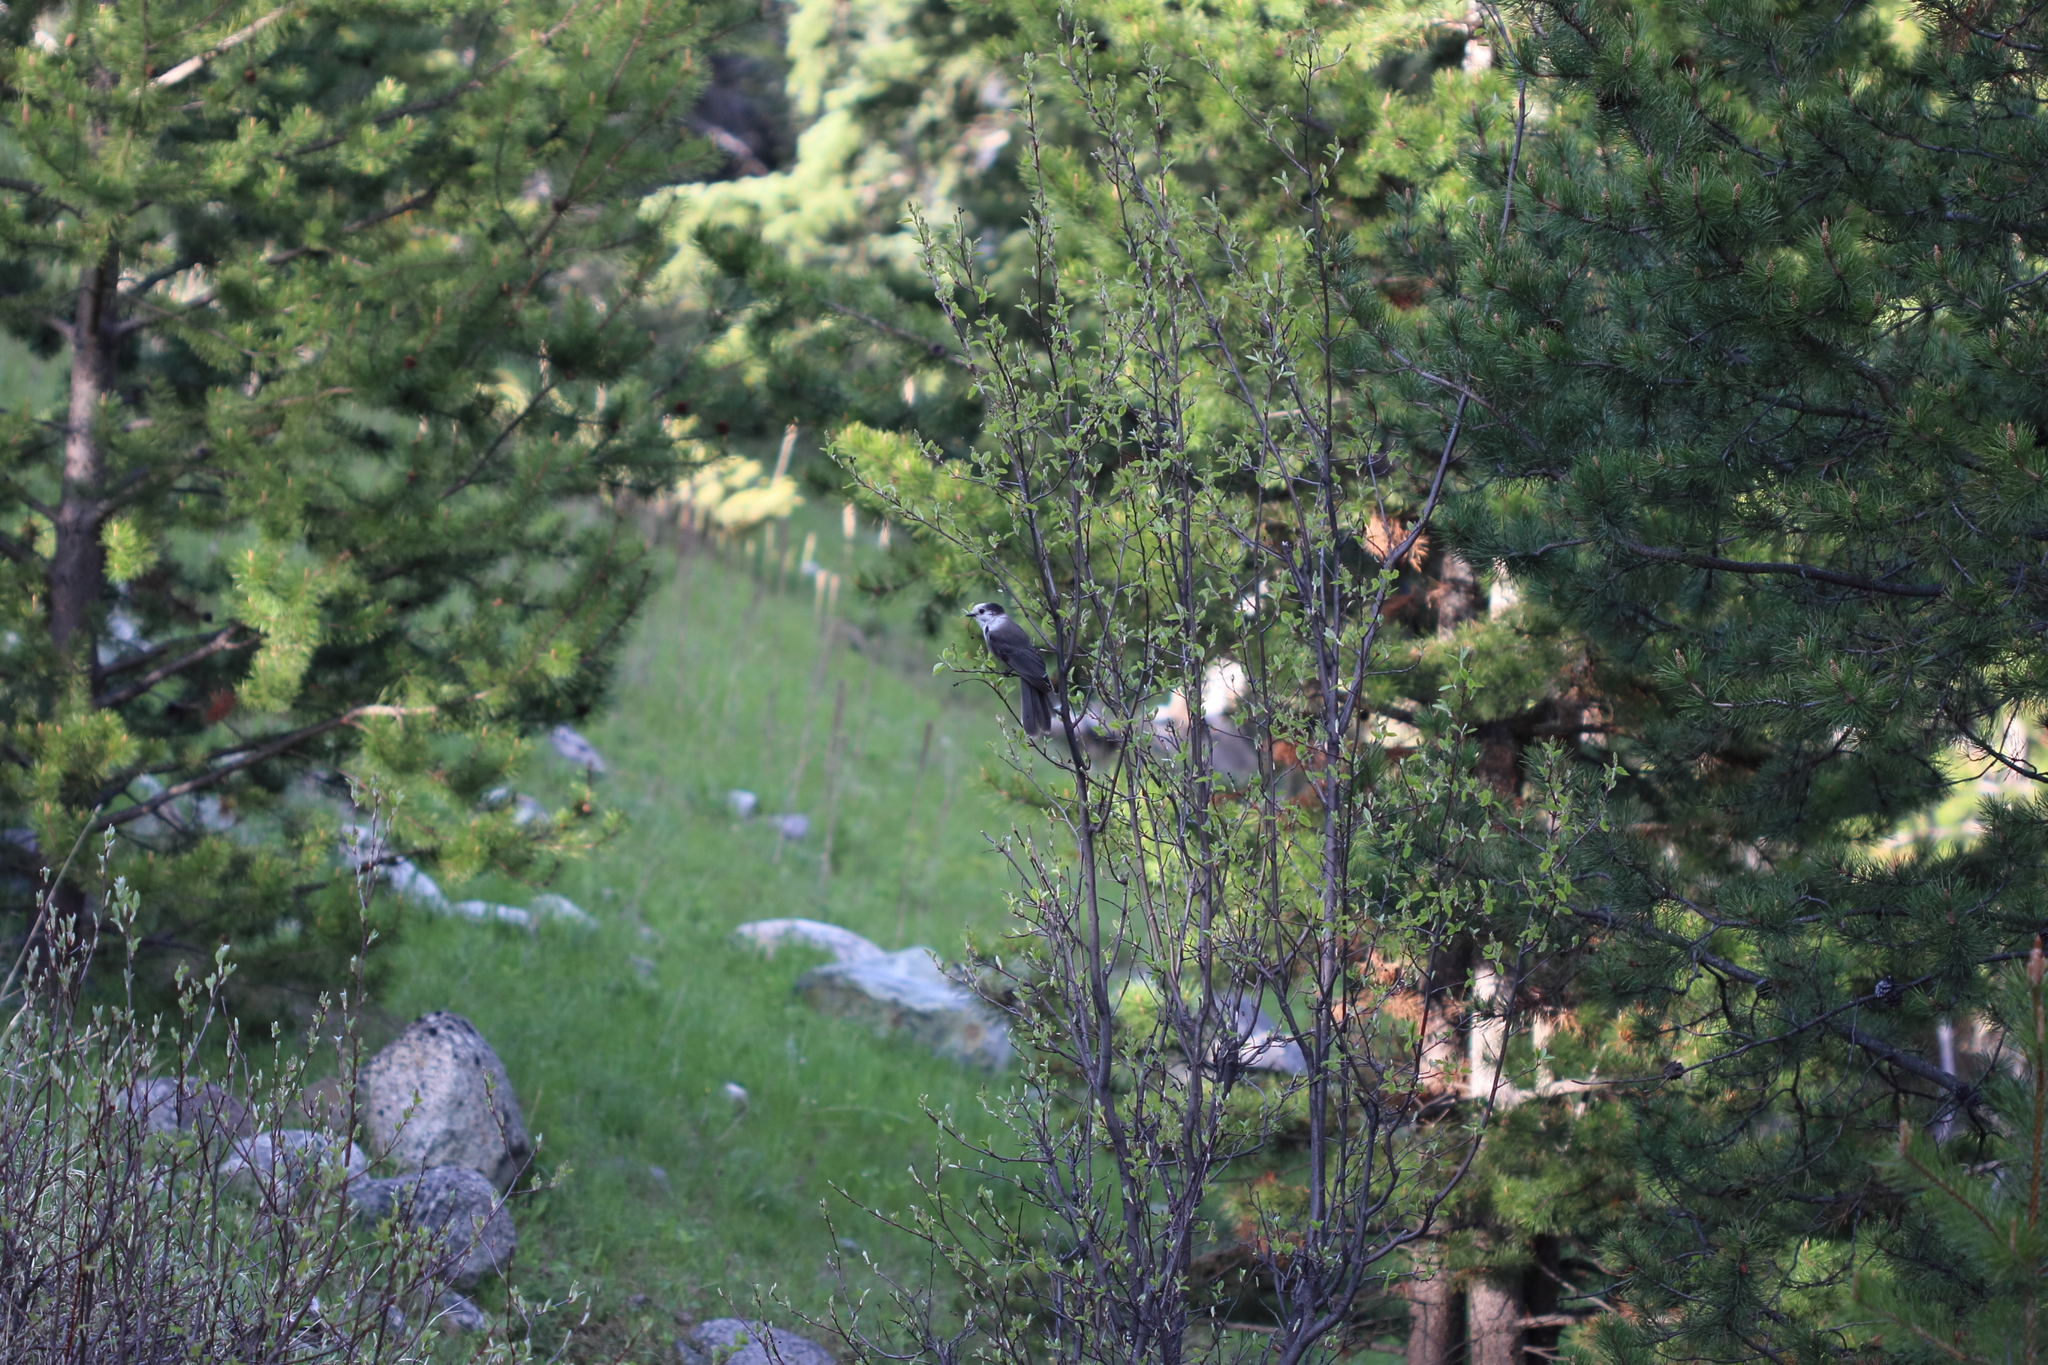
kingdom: Animalia
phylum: Chordata
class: Aves
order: Passeriformes
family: Corvidae
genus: Perisoreus
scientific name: Perisoreus canadensis
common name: Gray jay
